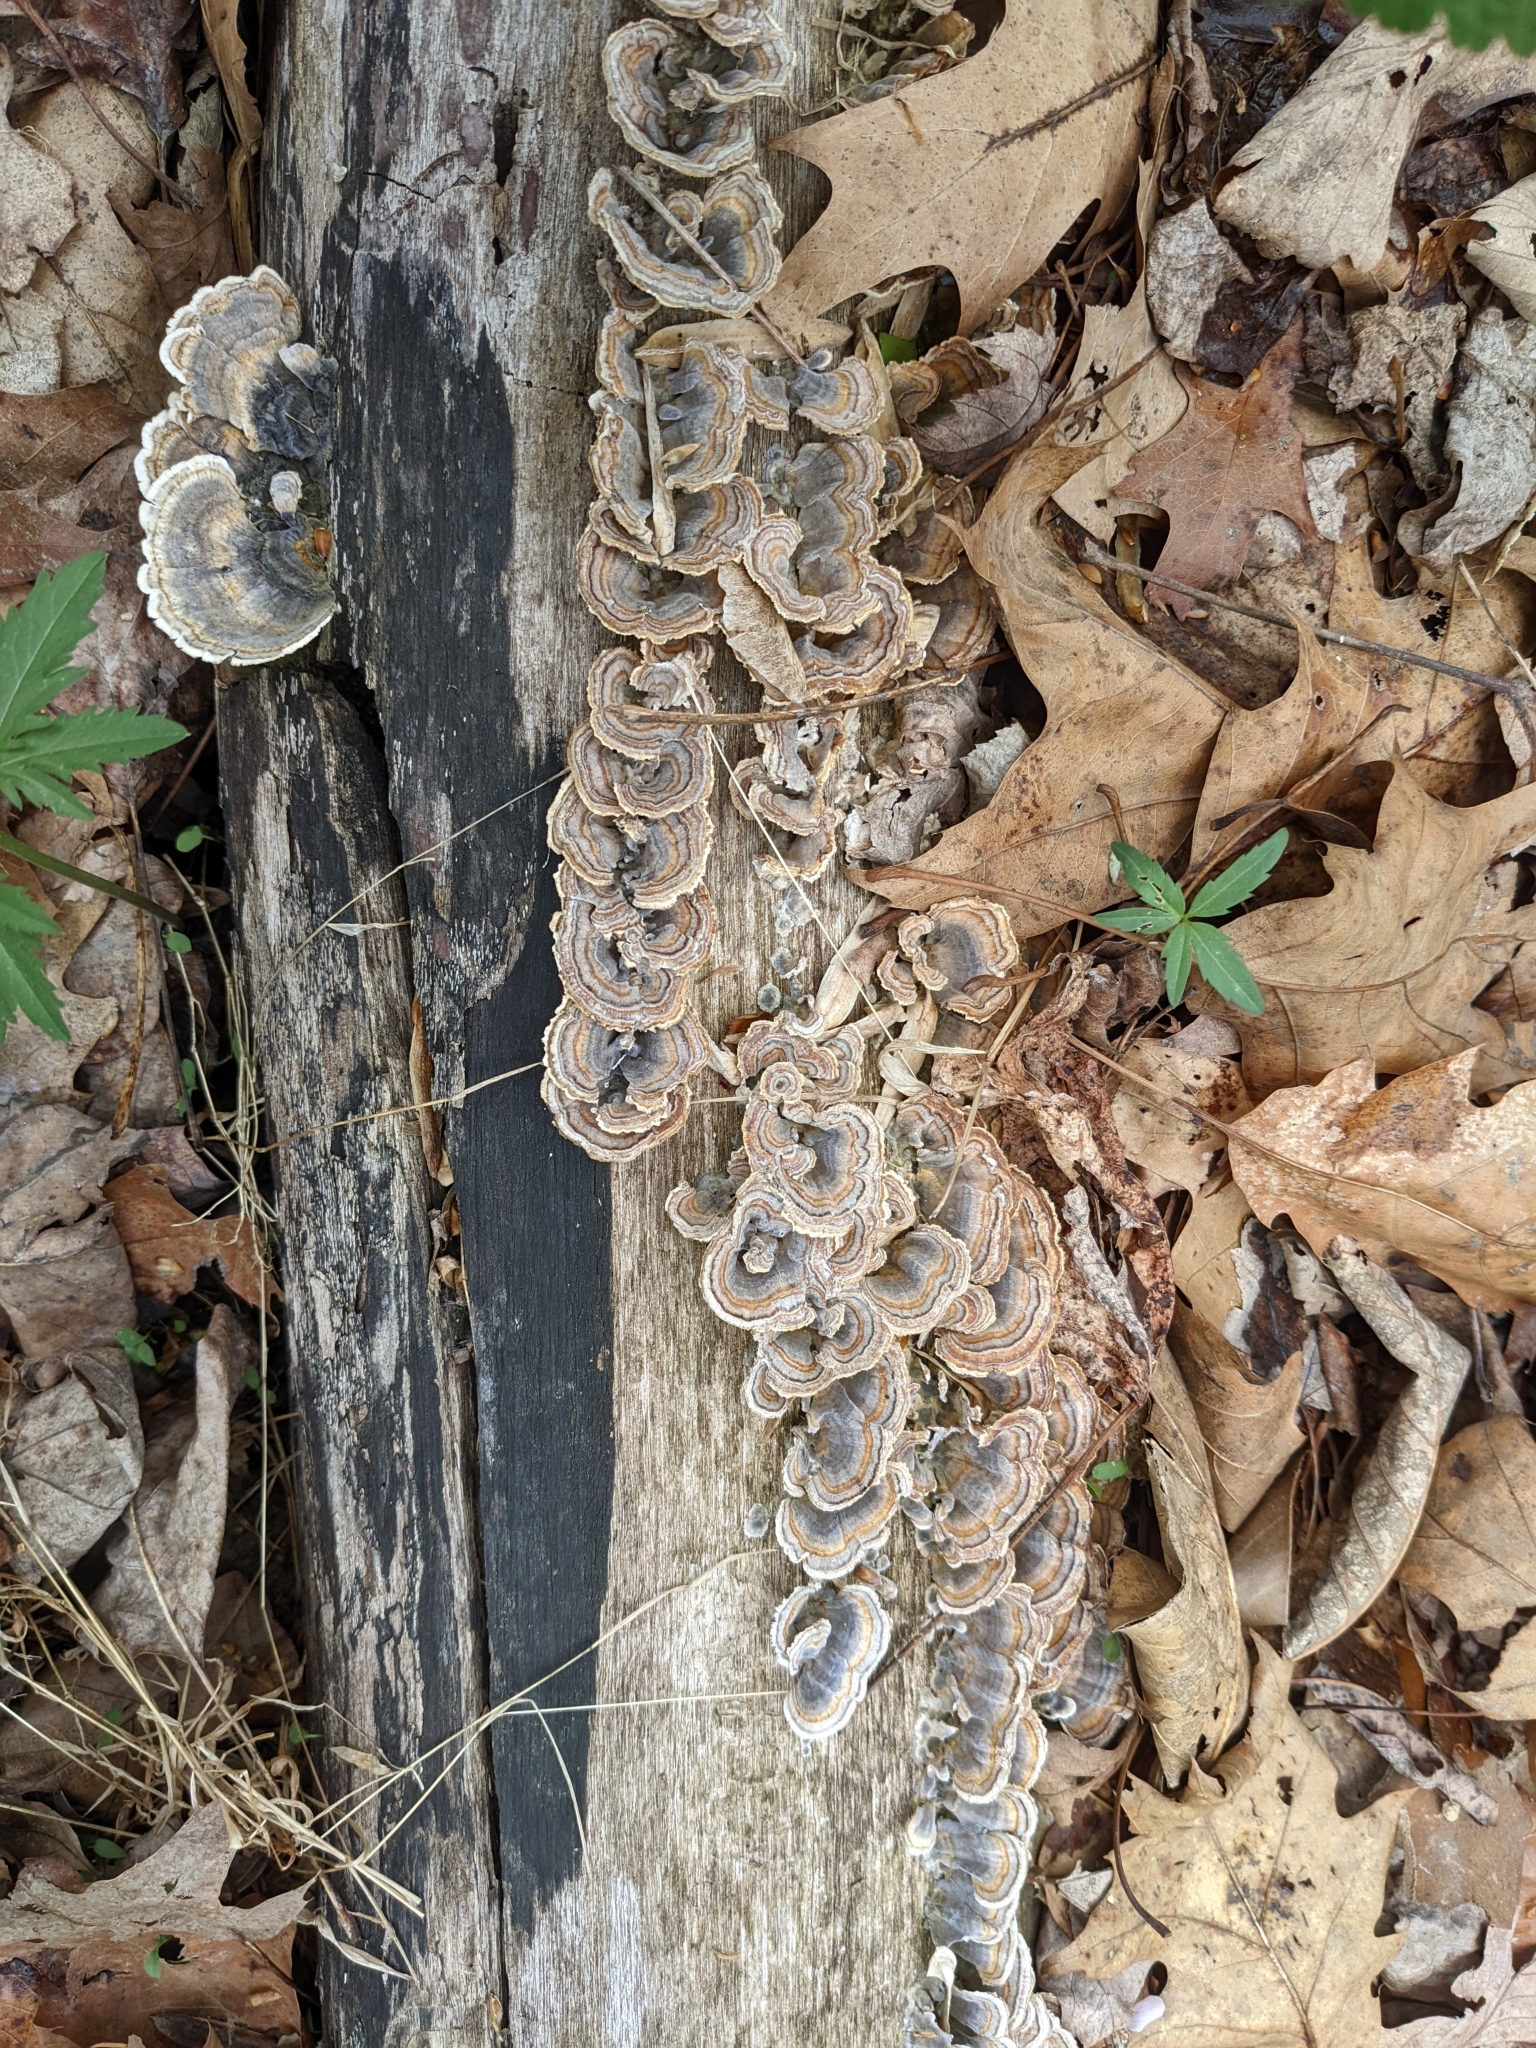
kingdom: Fungi
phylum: Basidiomycota
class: Agaricomycetes
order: Polyporales
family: Polyporaceae
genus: Trametes
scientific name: Trametes versicolor
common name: Turkeytail
